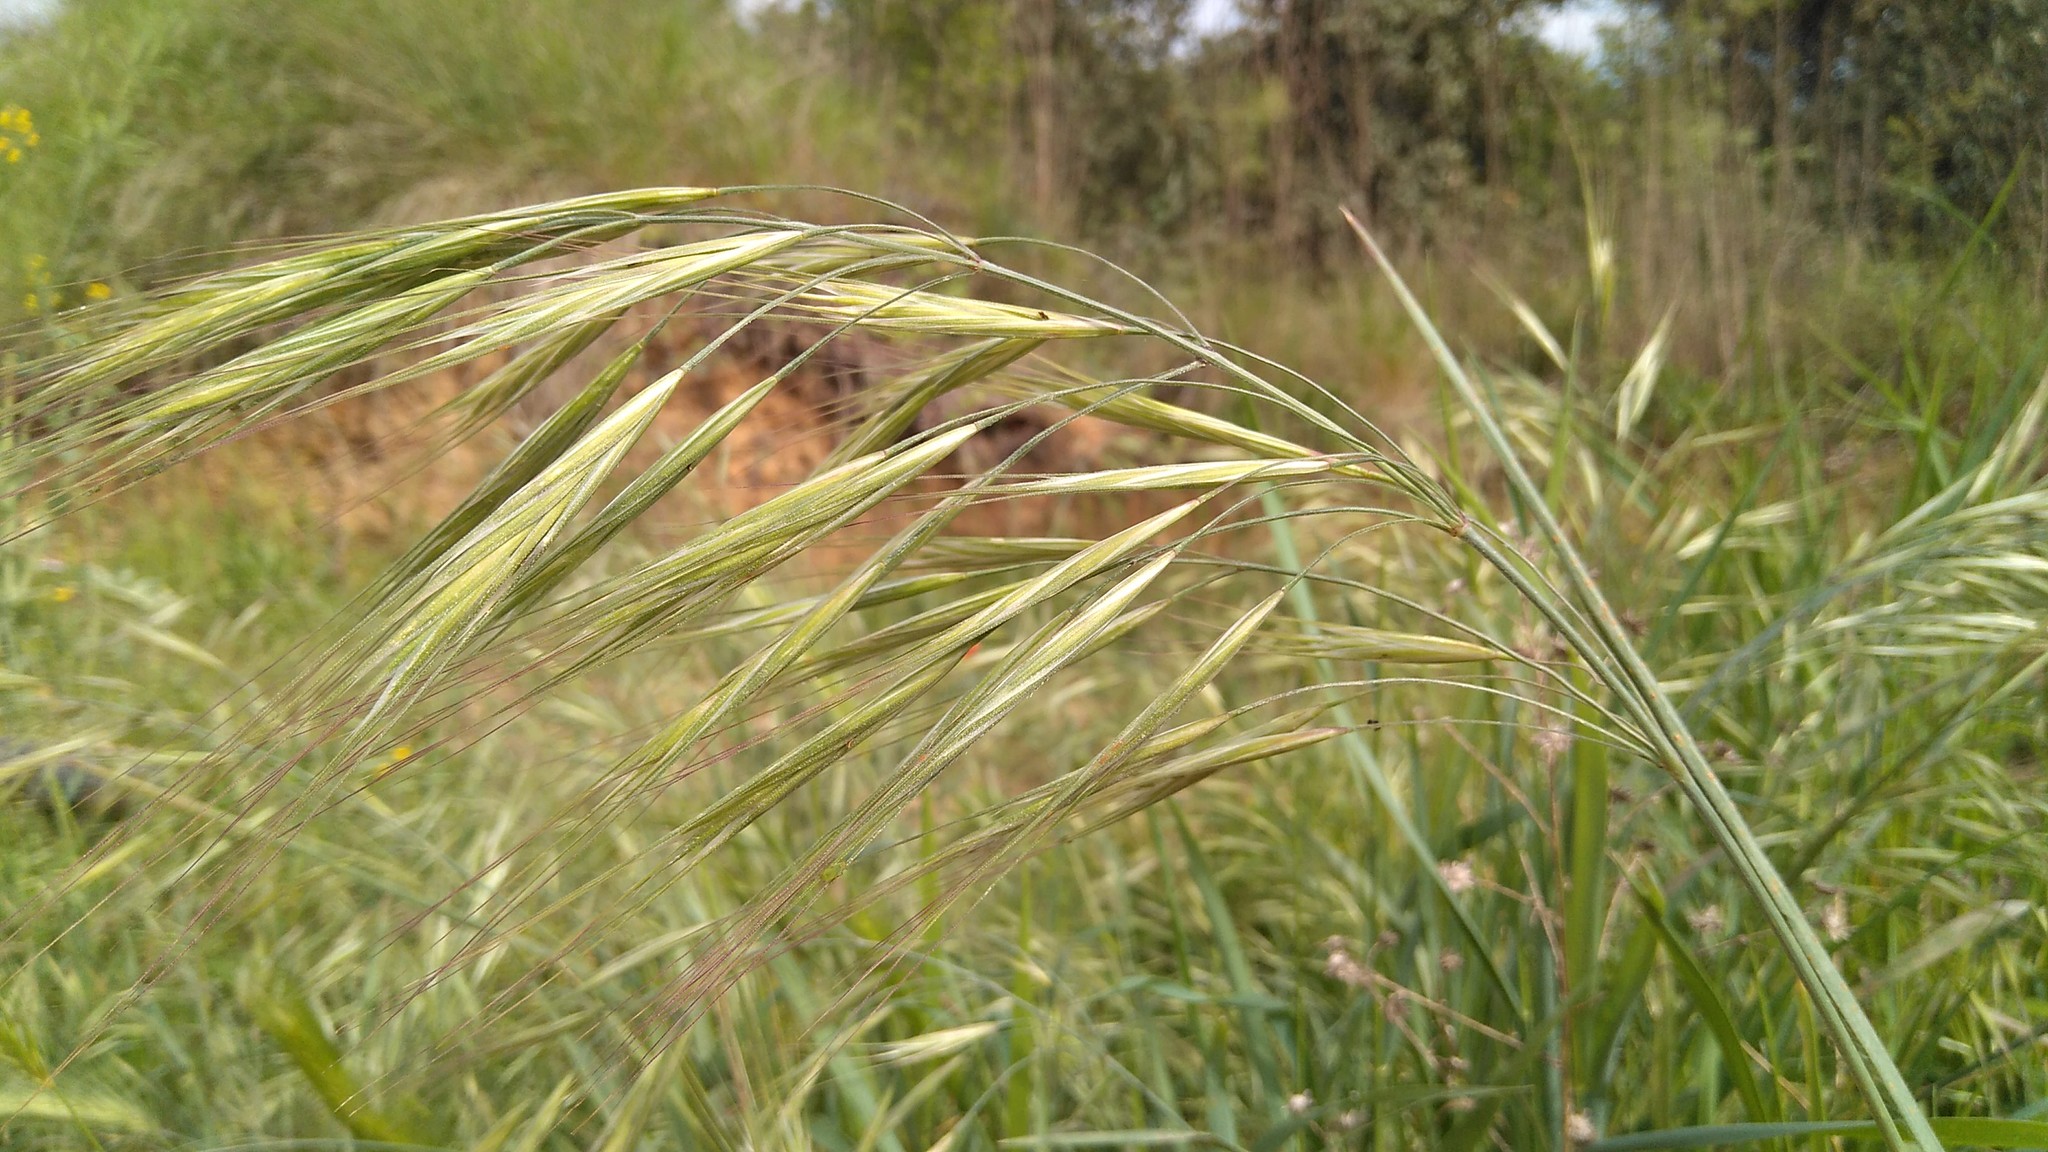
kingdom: Plantae
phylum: Tracheophyta
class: Liliopsida
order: Poales
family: Poaceae
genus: Bromus
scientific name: Bromus diandrus
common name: Ripgut brome
